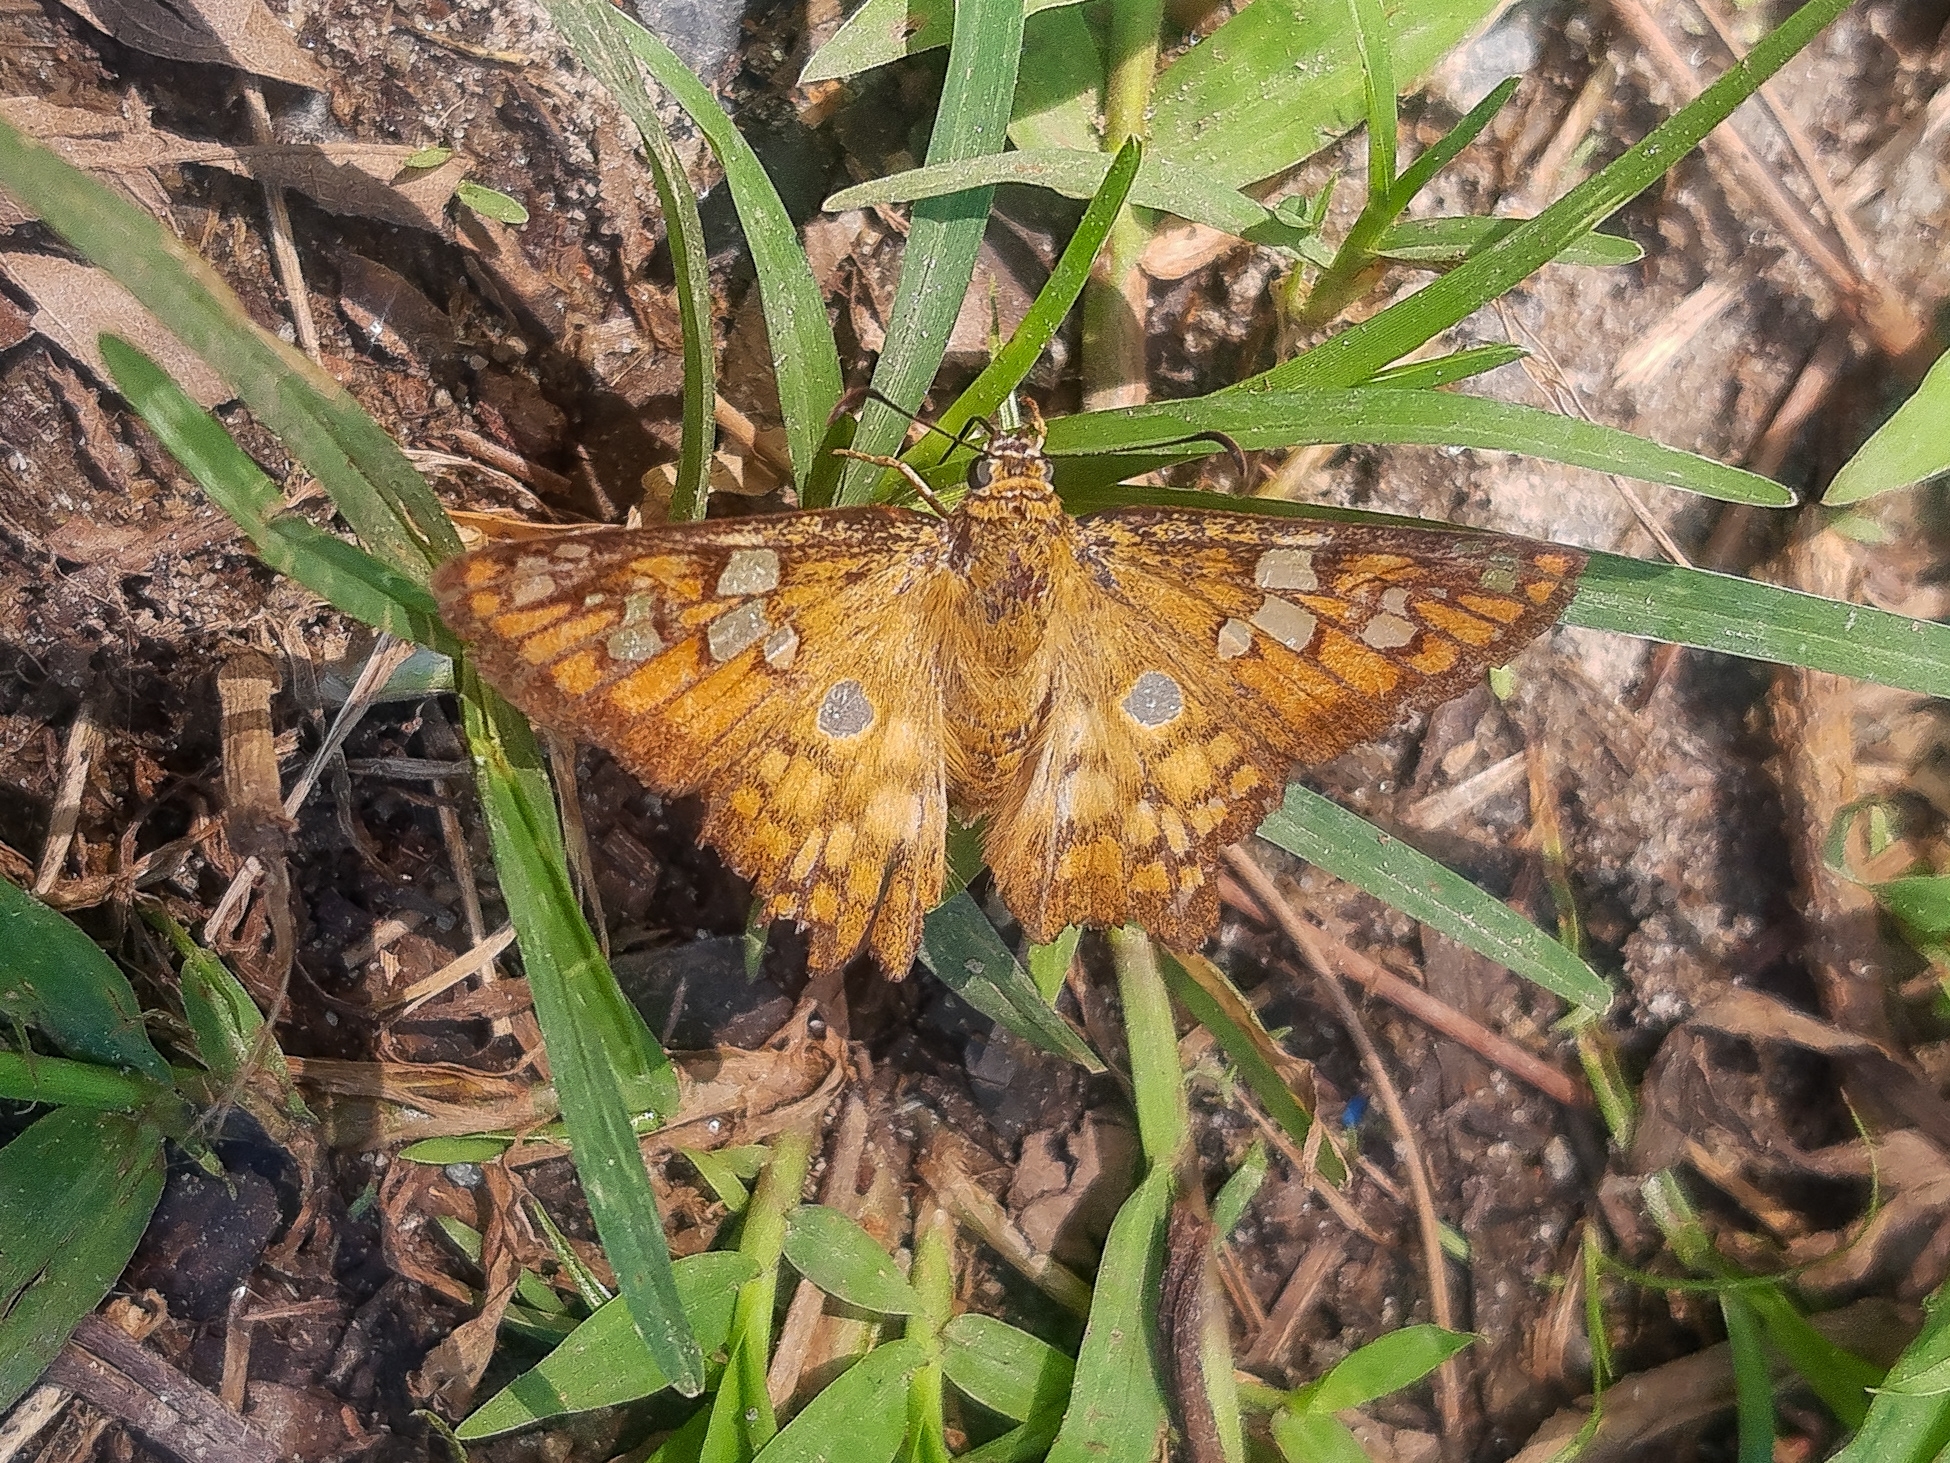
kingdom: Animalia
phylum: Arthropoda
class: Insecta
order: Lepidoptera
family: Hesperiidae
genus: Myscelus
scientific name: Myscelus amystis
